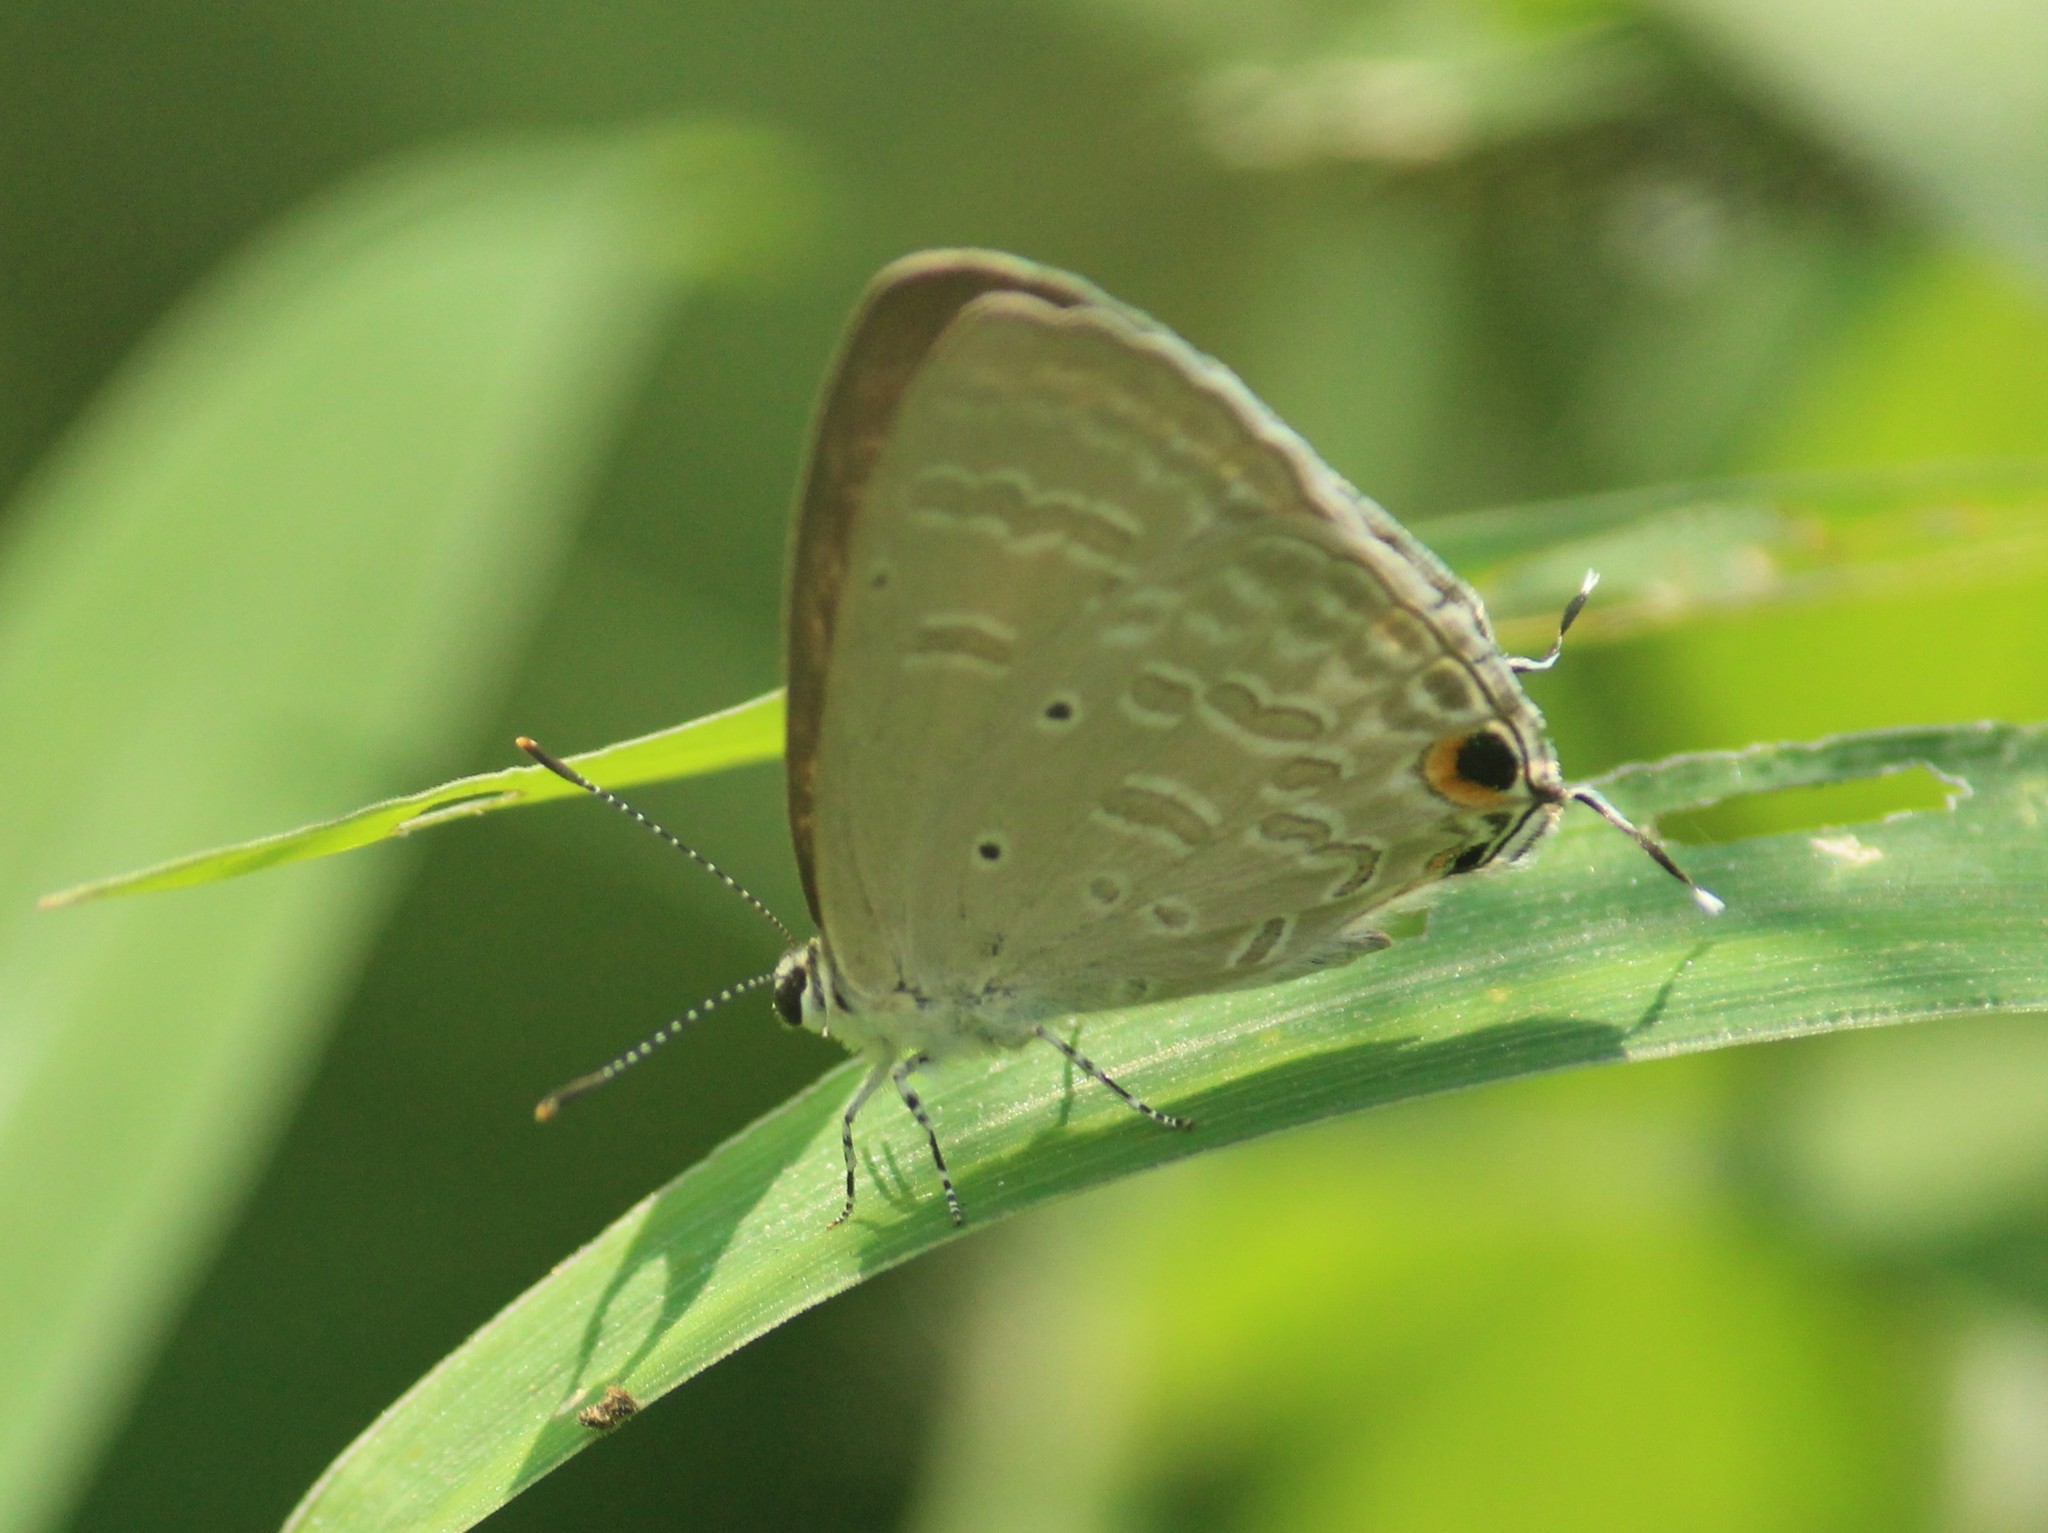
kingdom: Animalia
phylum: Arthropoda
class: Insecta
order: Lepidoptera
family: Lycaenidae
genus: Catochrysops
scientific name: Catochrysops strabo
